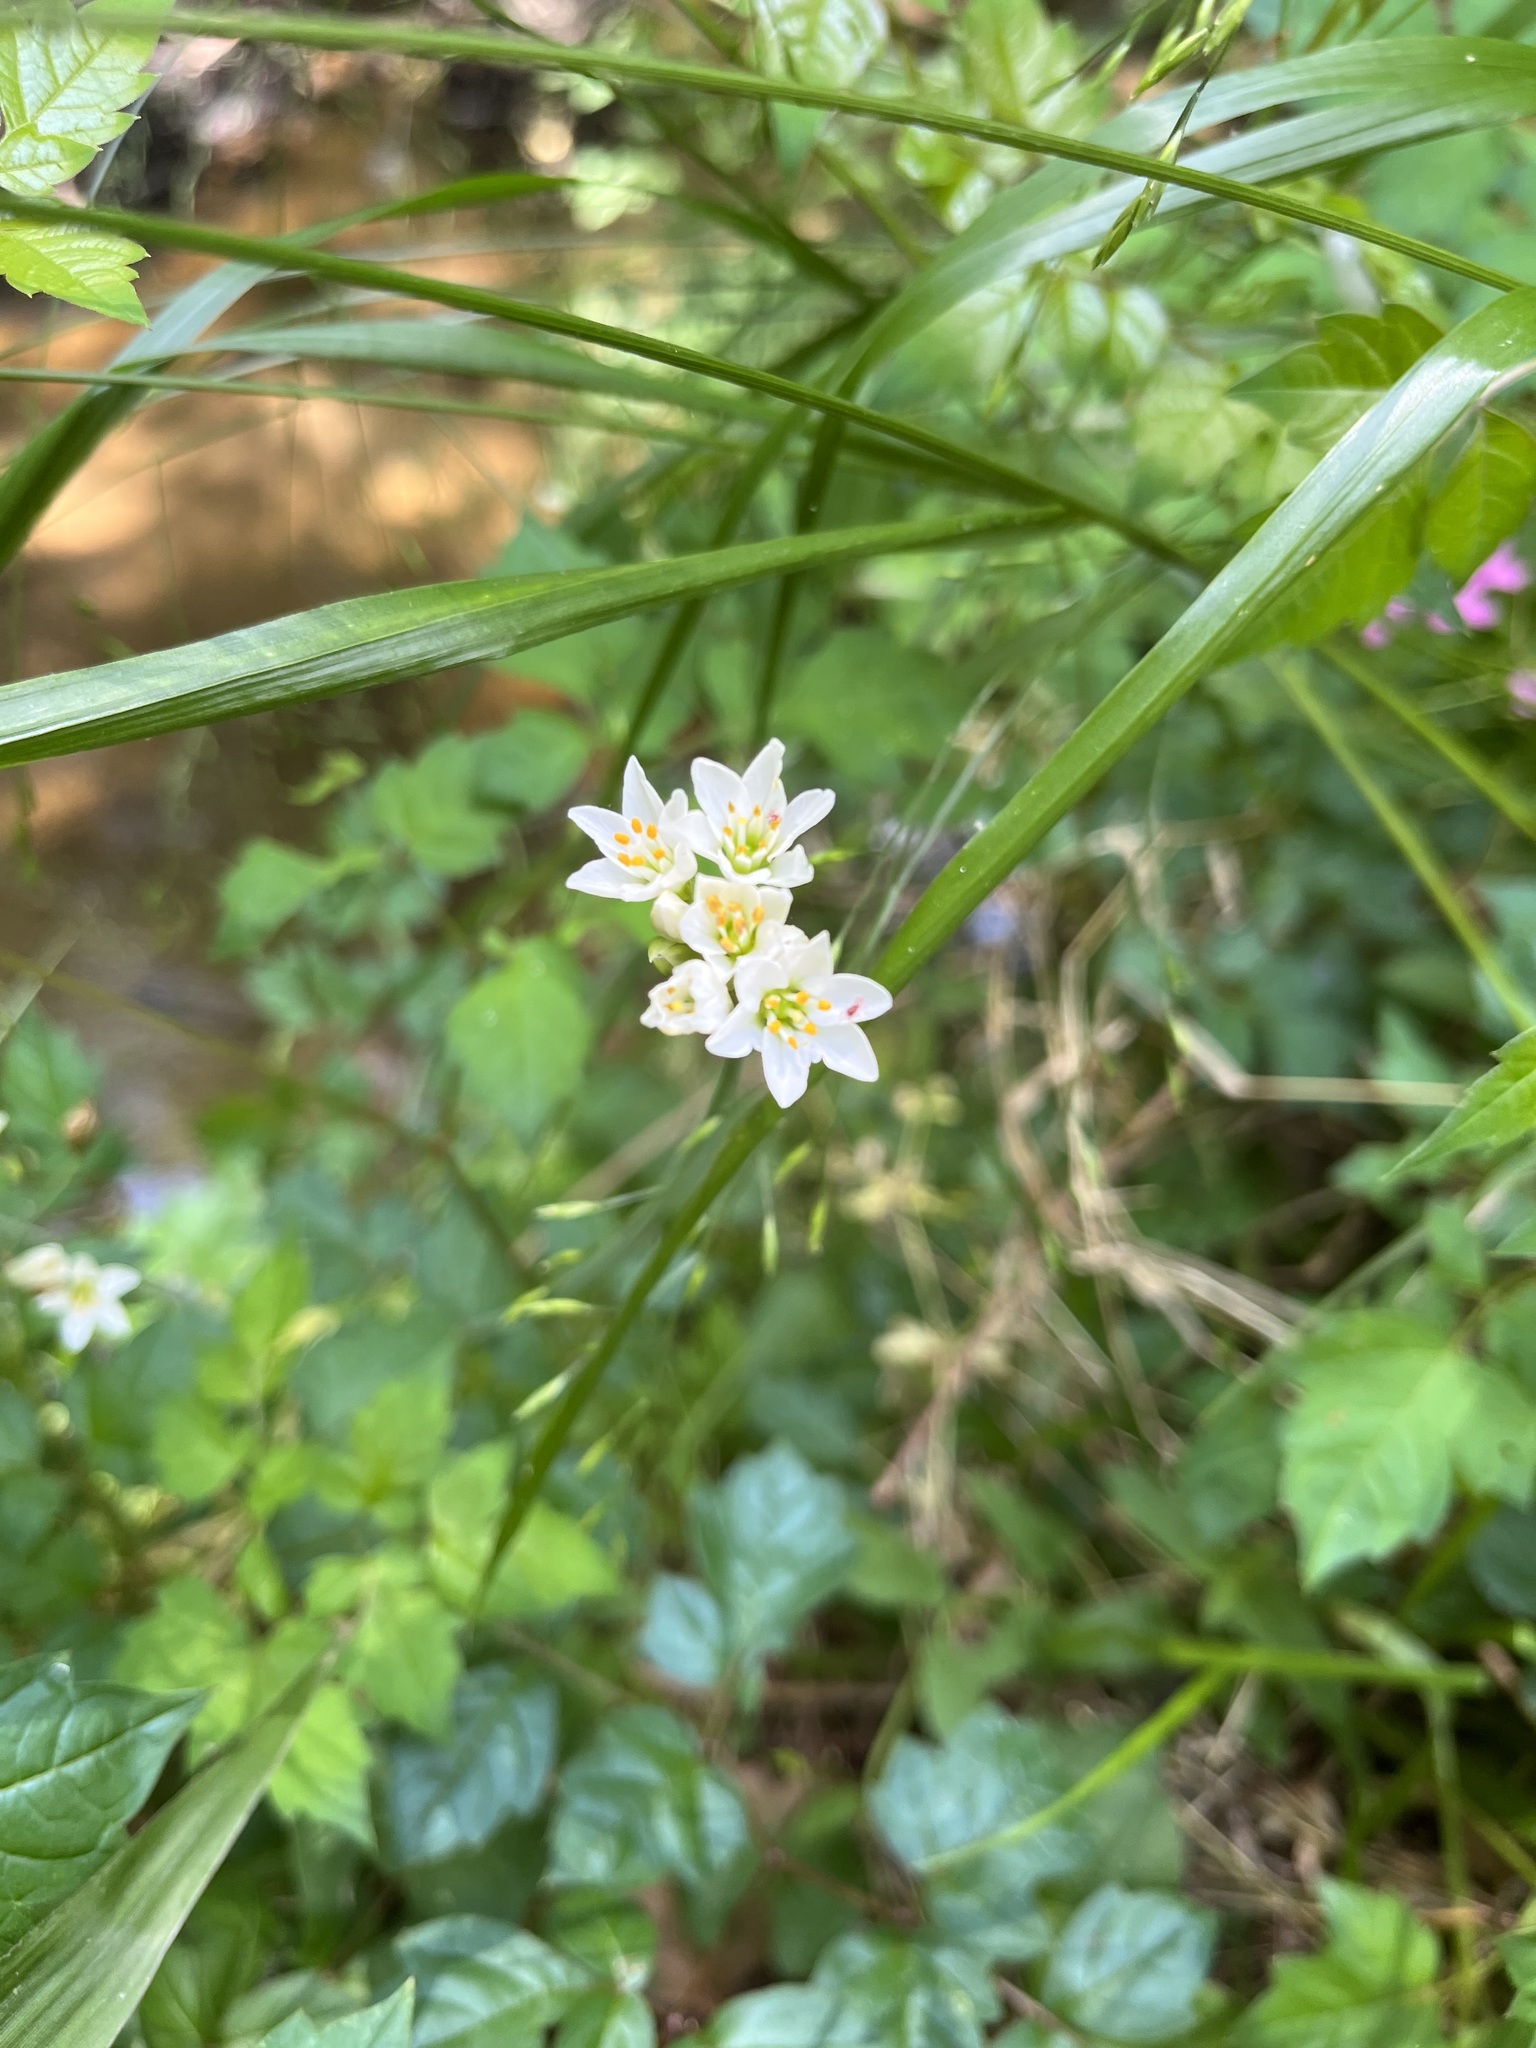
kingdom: Plantae
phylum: Tracheophyta
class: Liliopsida
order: Asparagales
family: Amaryllidaceae
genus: Nothoscordum
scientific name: Nothoscordum bivalve
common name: Crow-poison
